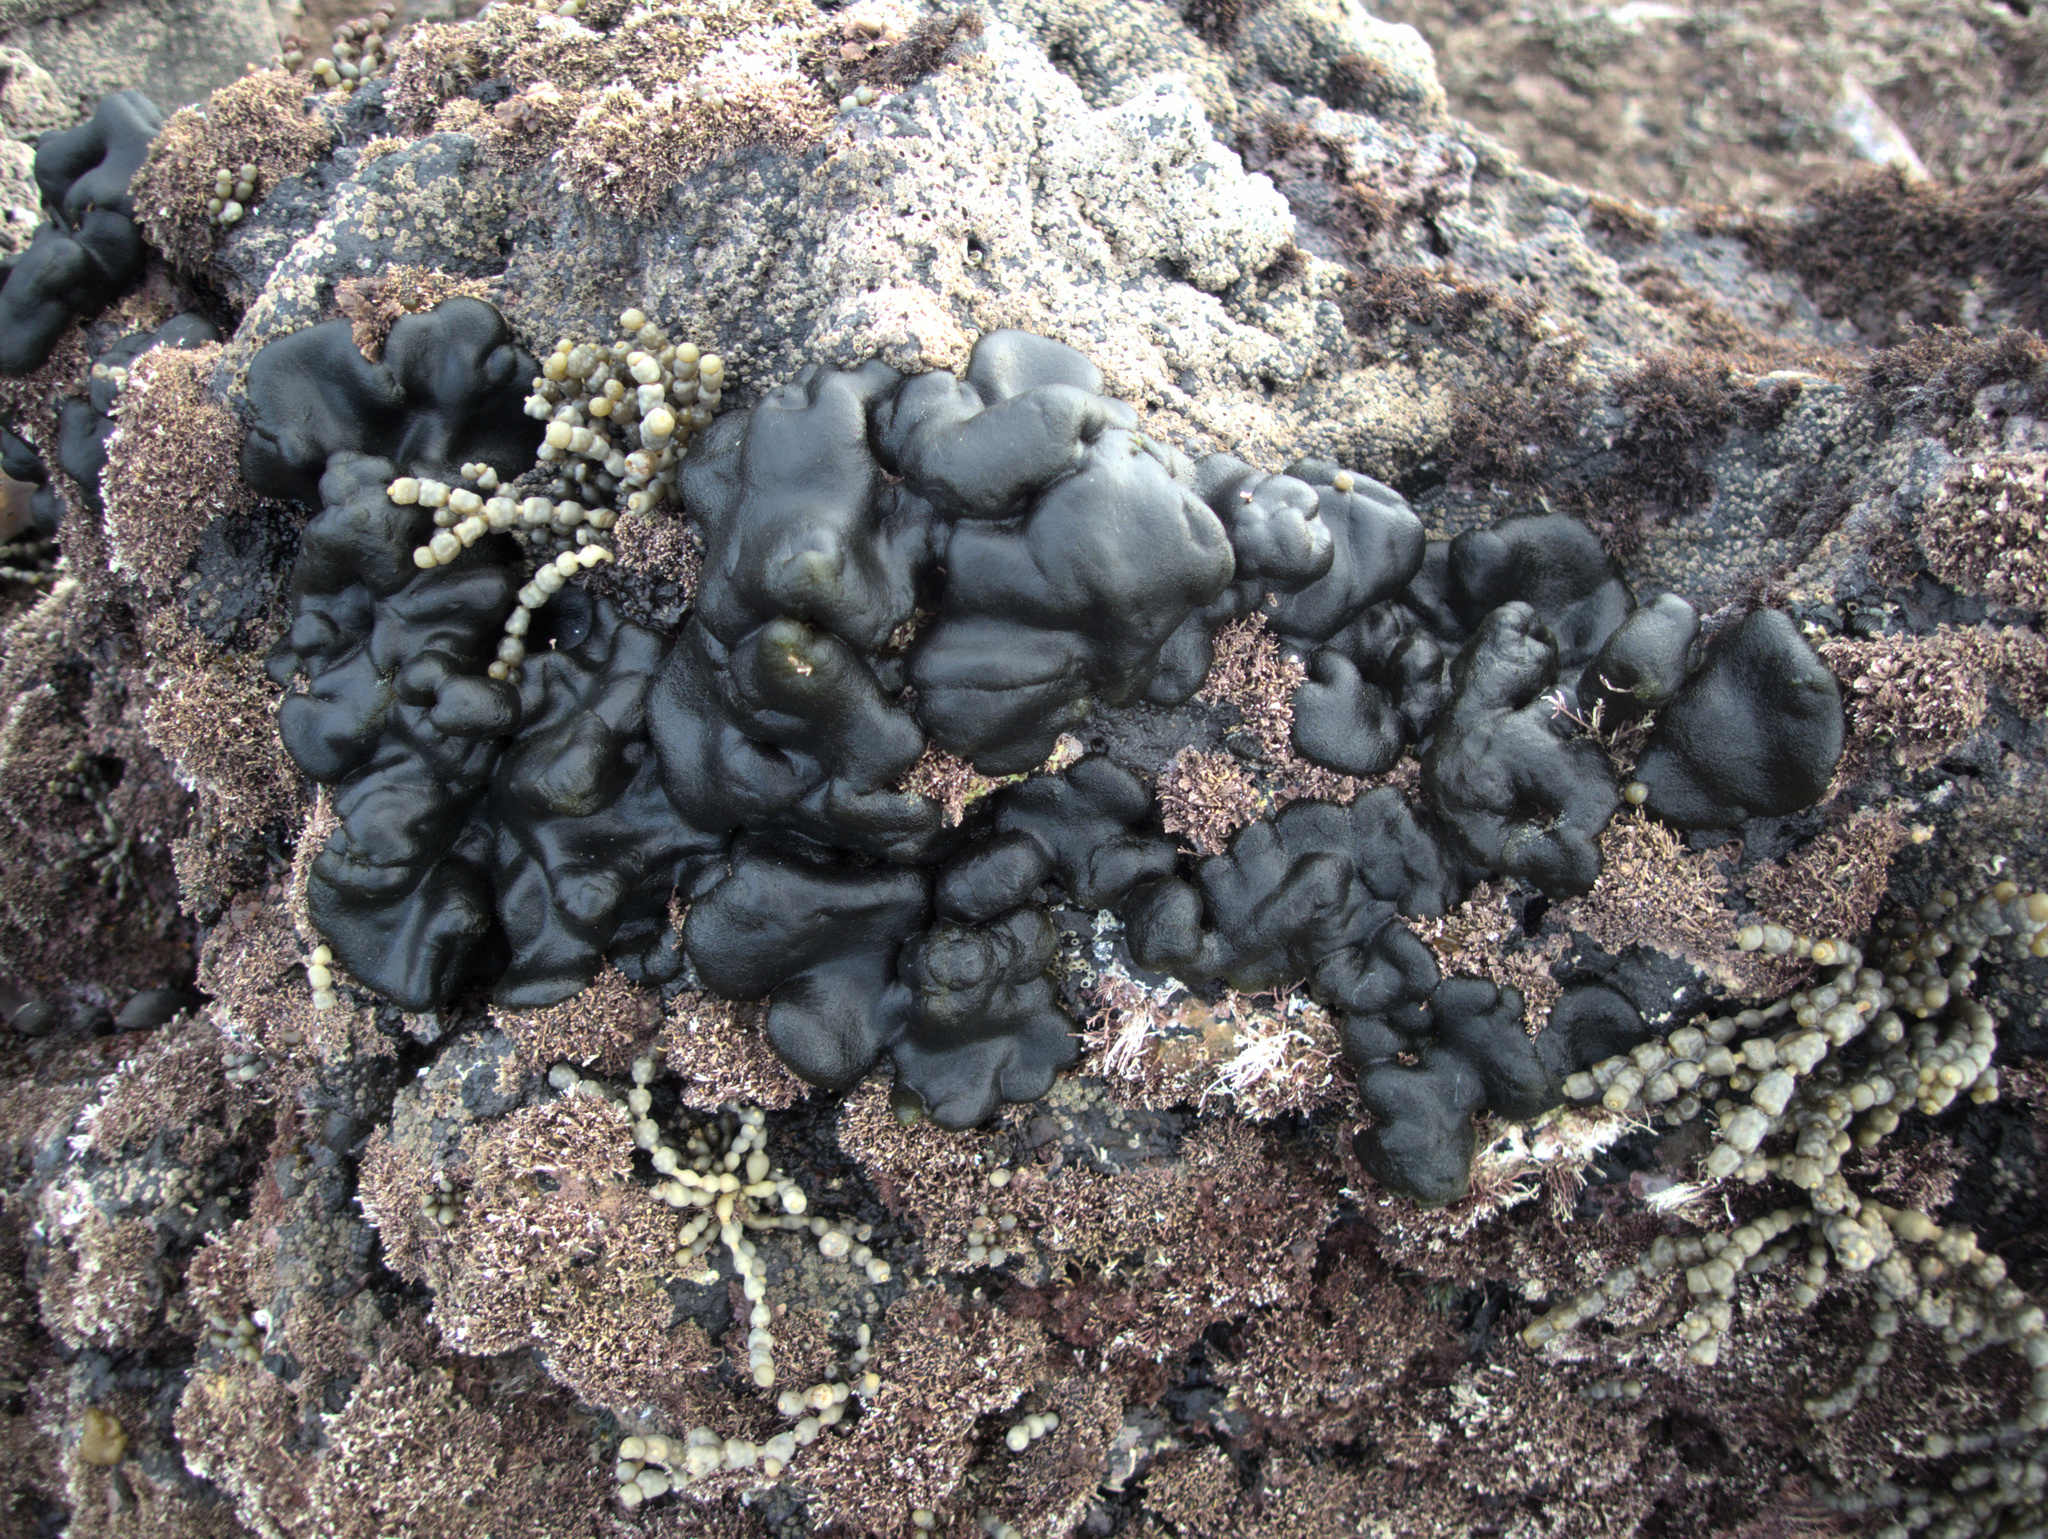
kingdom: Plantae
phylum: Chlorophyta
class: Ulvophyceae
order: Bryopsidales
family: Codiaceae
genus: Codium
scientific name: Codium convolutum
